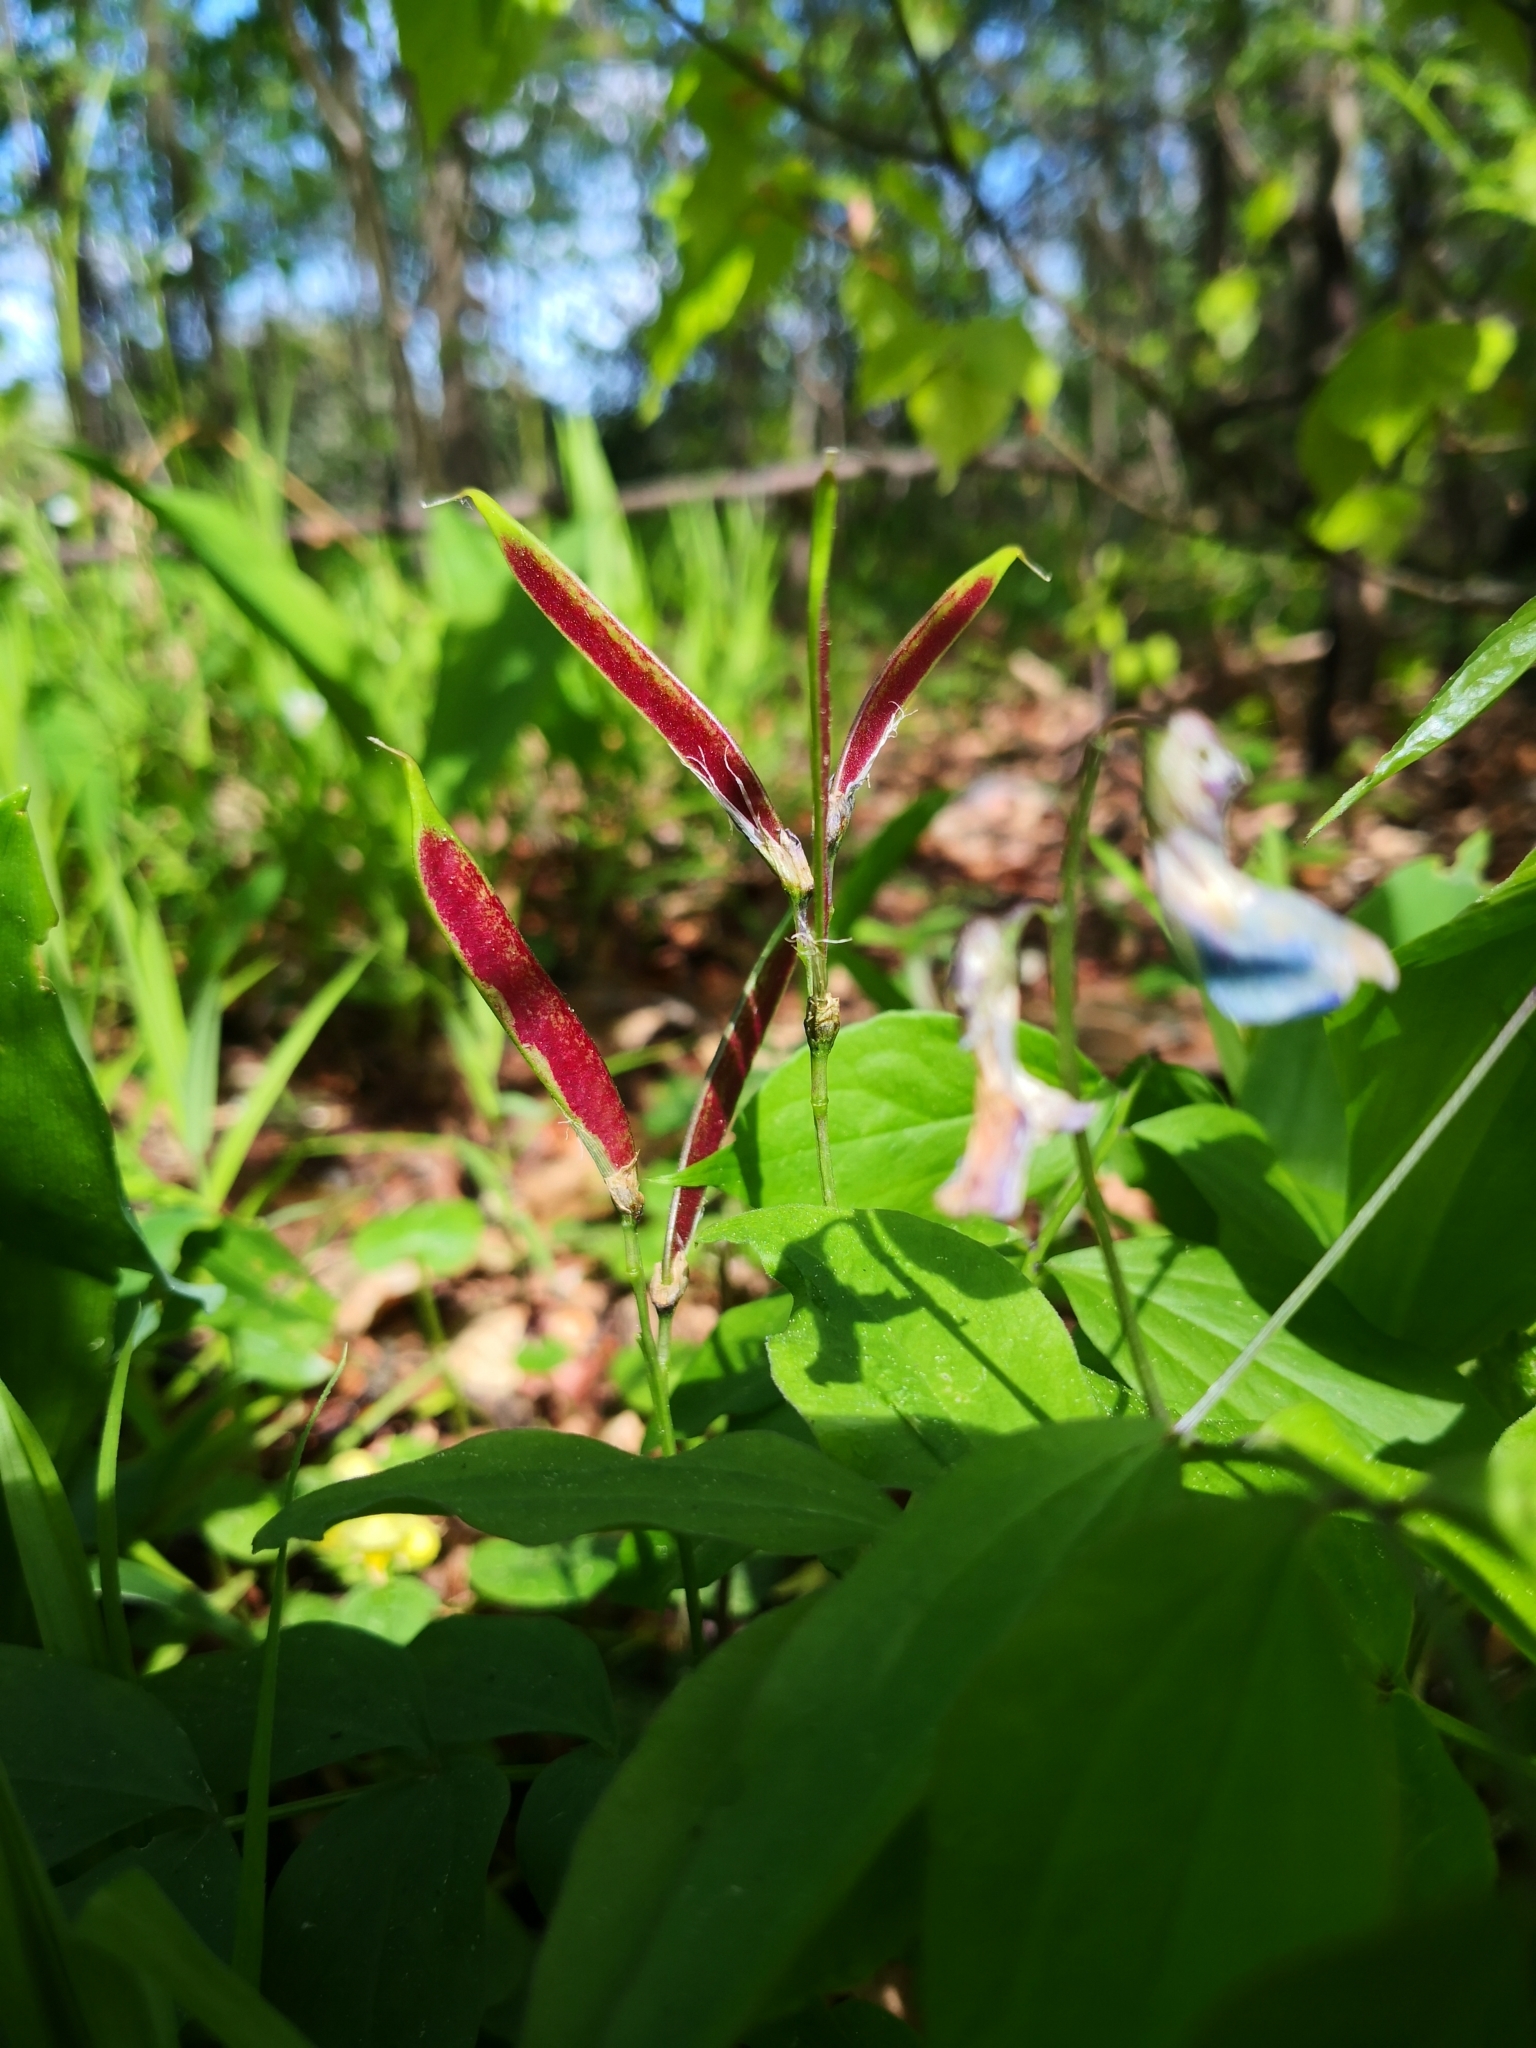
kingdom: Plantae
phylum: Tracheophyta
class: Magnoliopsida
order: Fabales
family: Fabaceae
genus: Lathyrus
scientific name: Lathyrus vernus
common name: Spring pea
